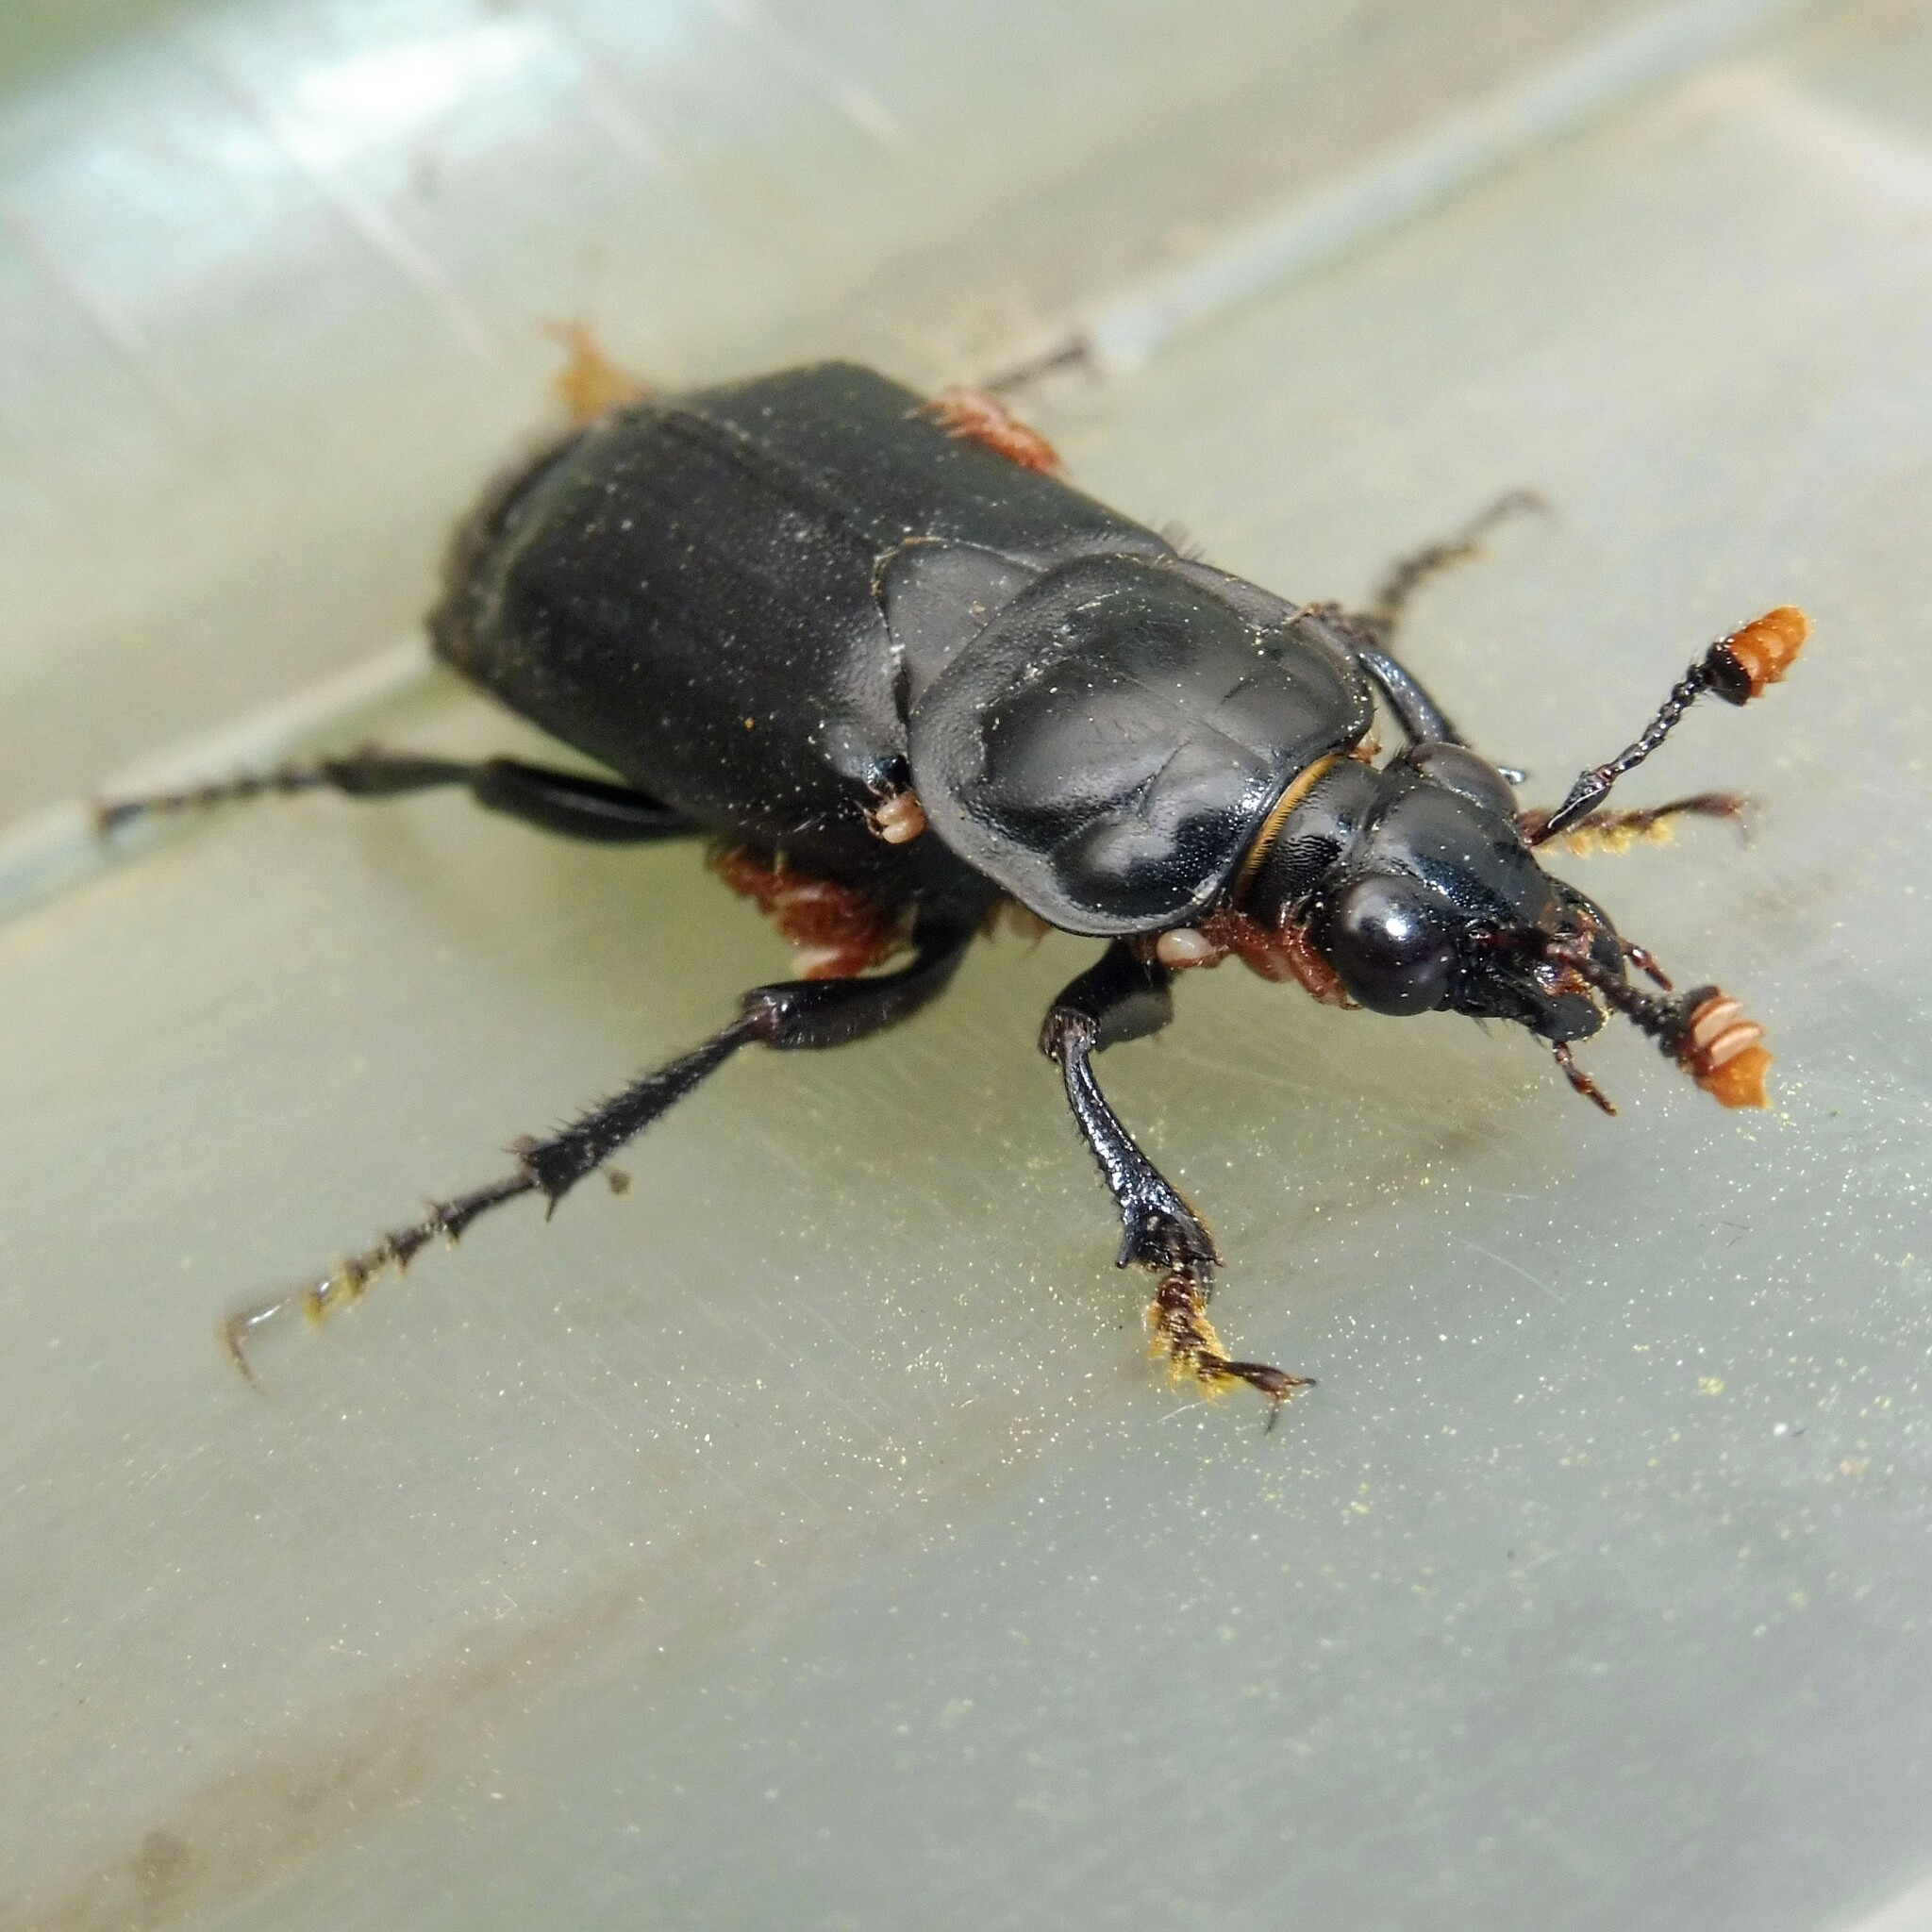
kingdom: Animalia
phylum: Arthropoda
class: Insecta
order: Coleoptera
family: Staphylinidae
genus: Nicrophorus
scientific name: Nicrophorus humator
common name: Black sexton beetle
